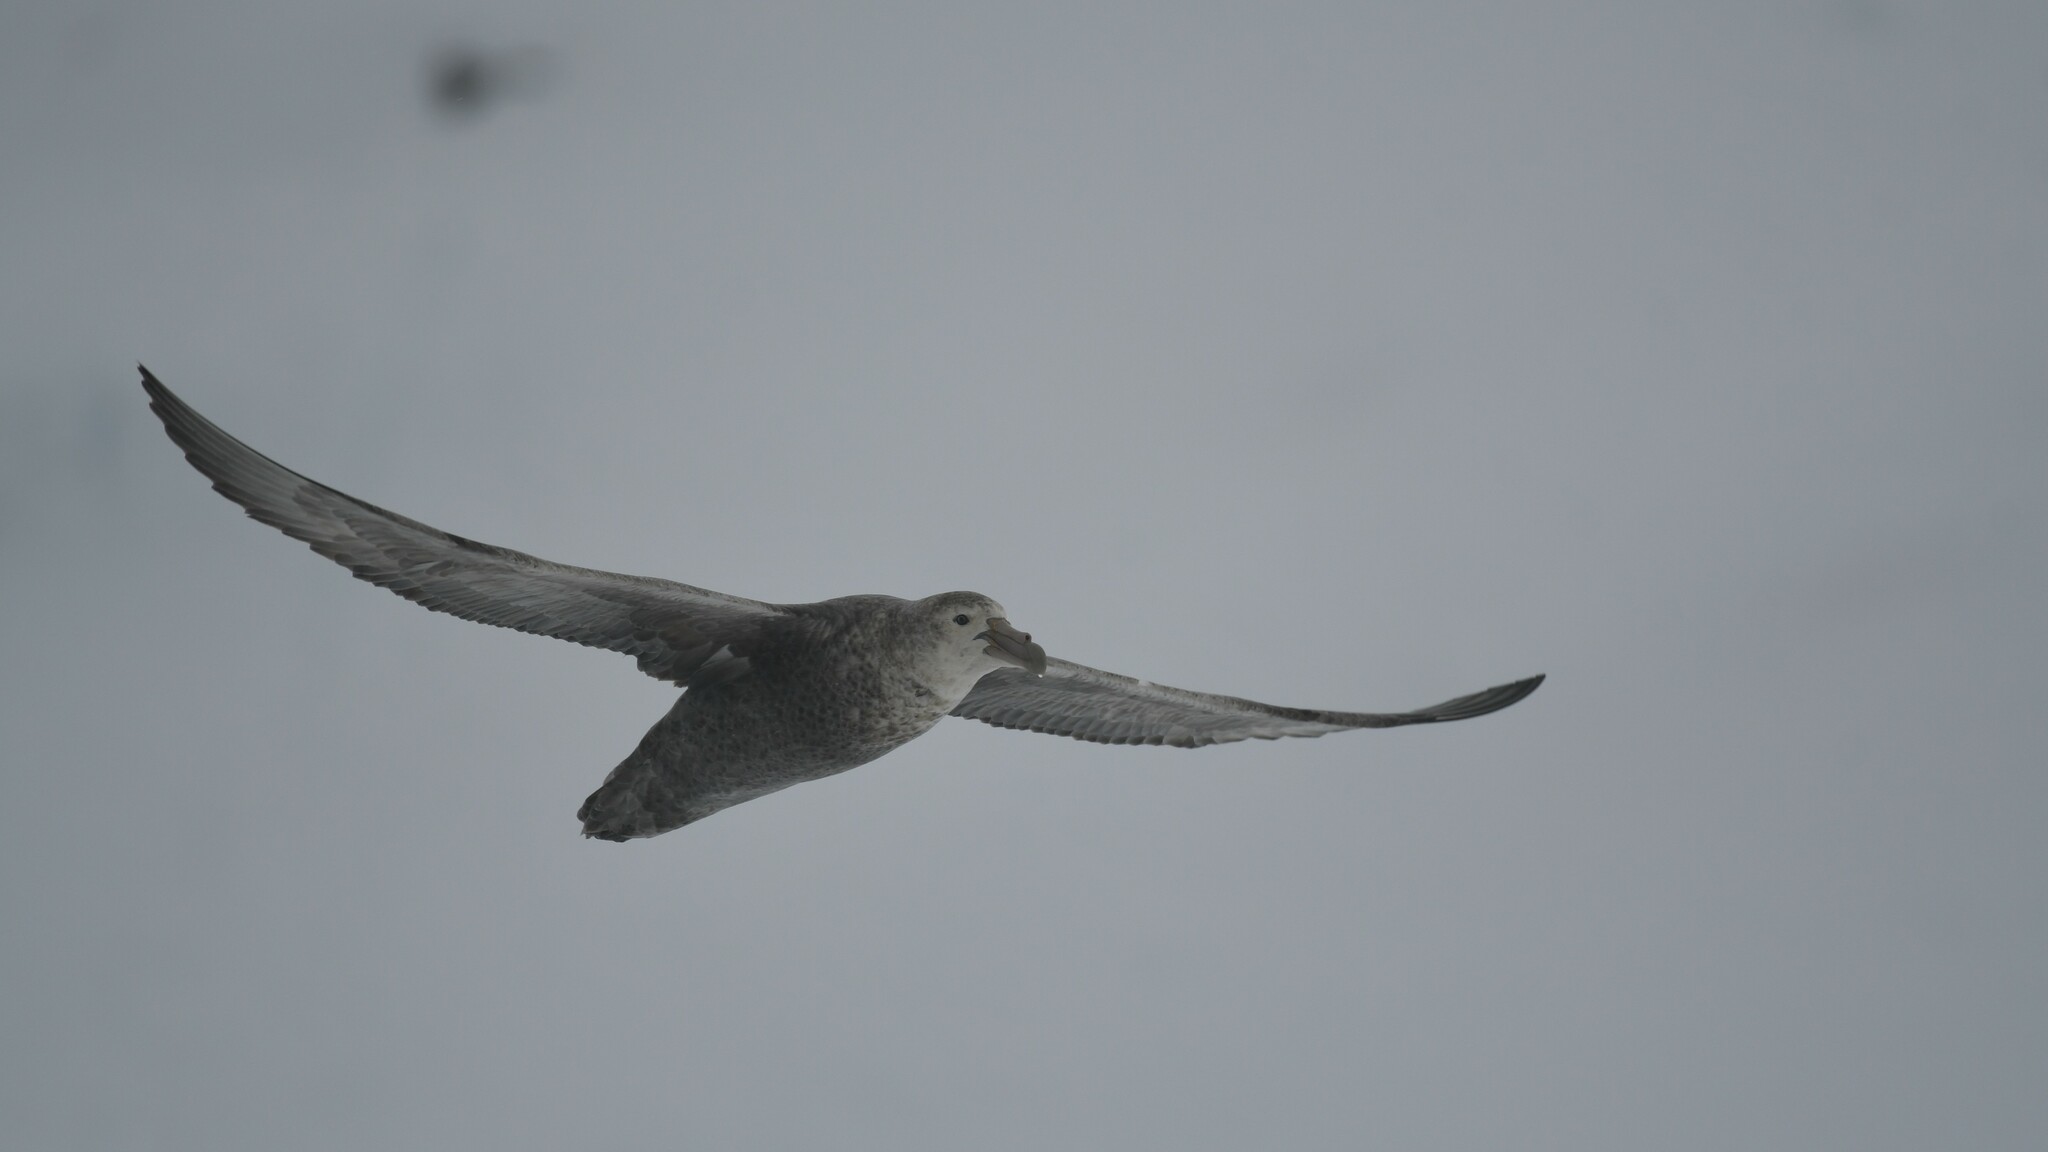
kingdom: Animalia
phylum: Chordata
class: Aves
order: Procellariiformes
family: Procellariidae
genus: Macronectes
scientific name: Macronectes giganteus
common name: Southern giant petrel
